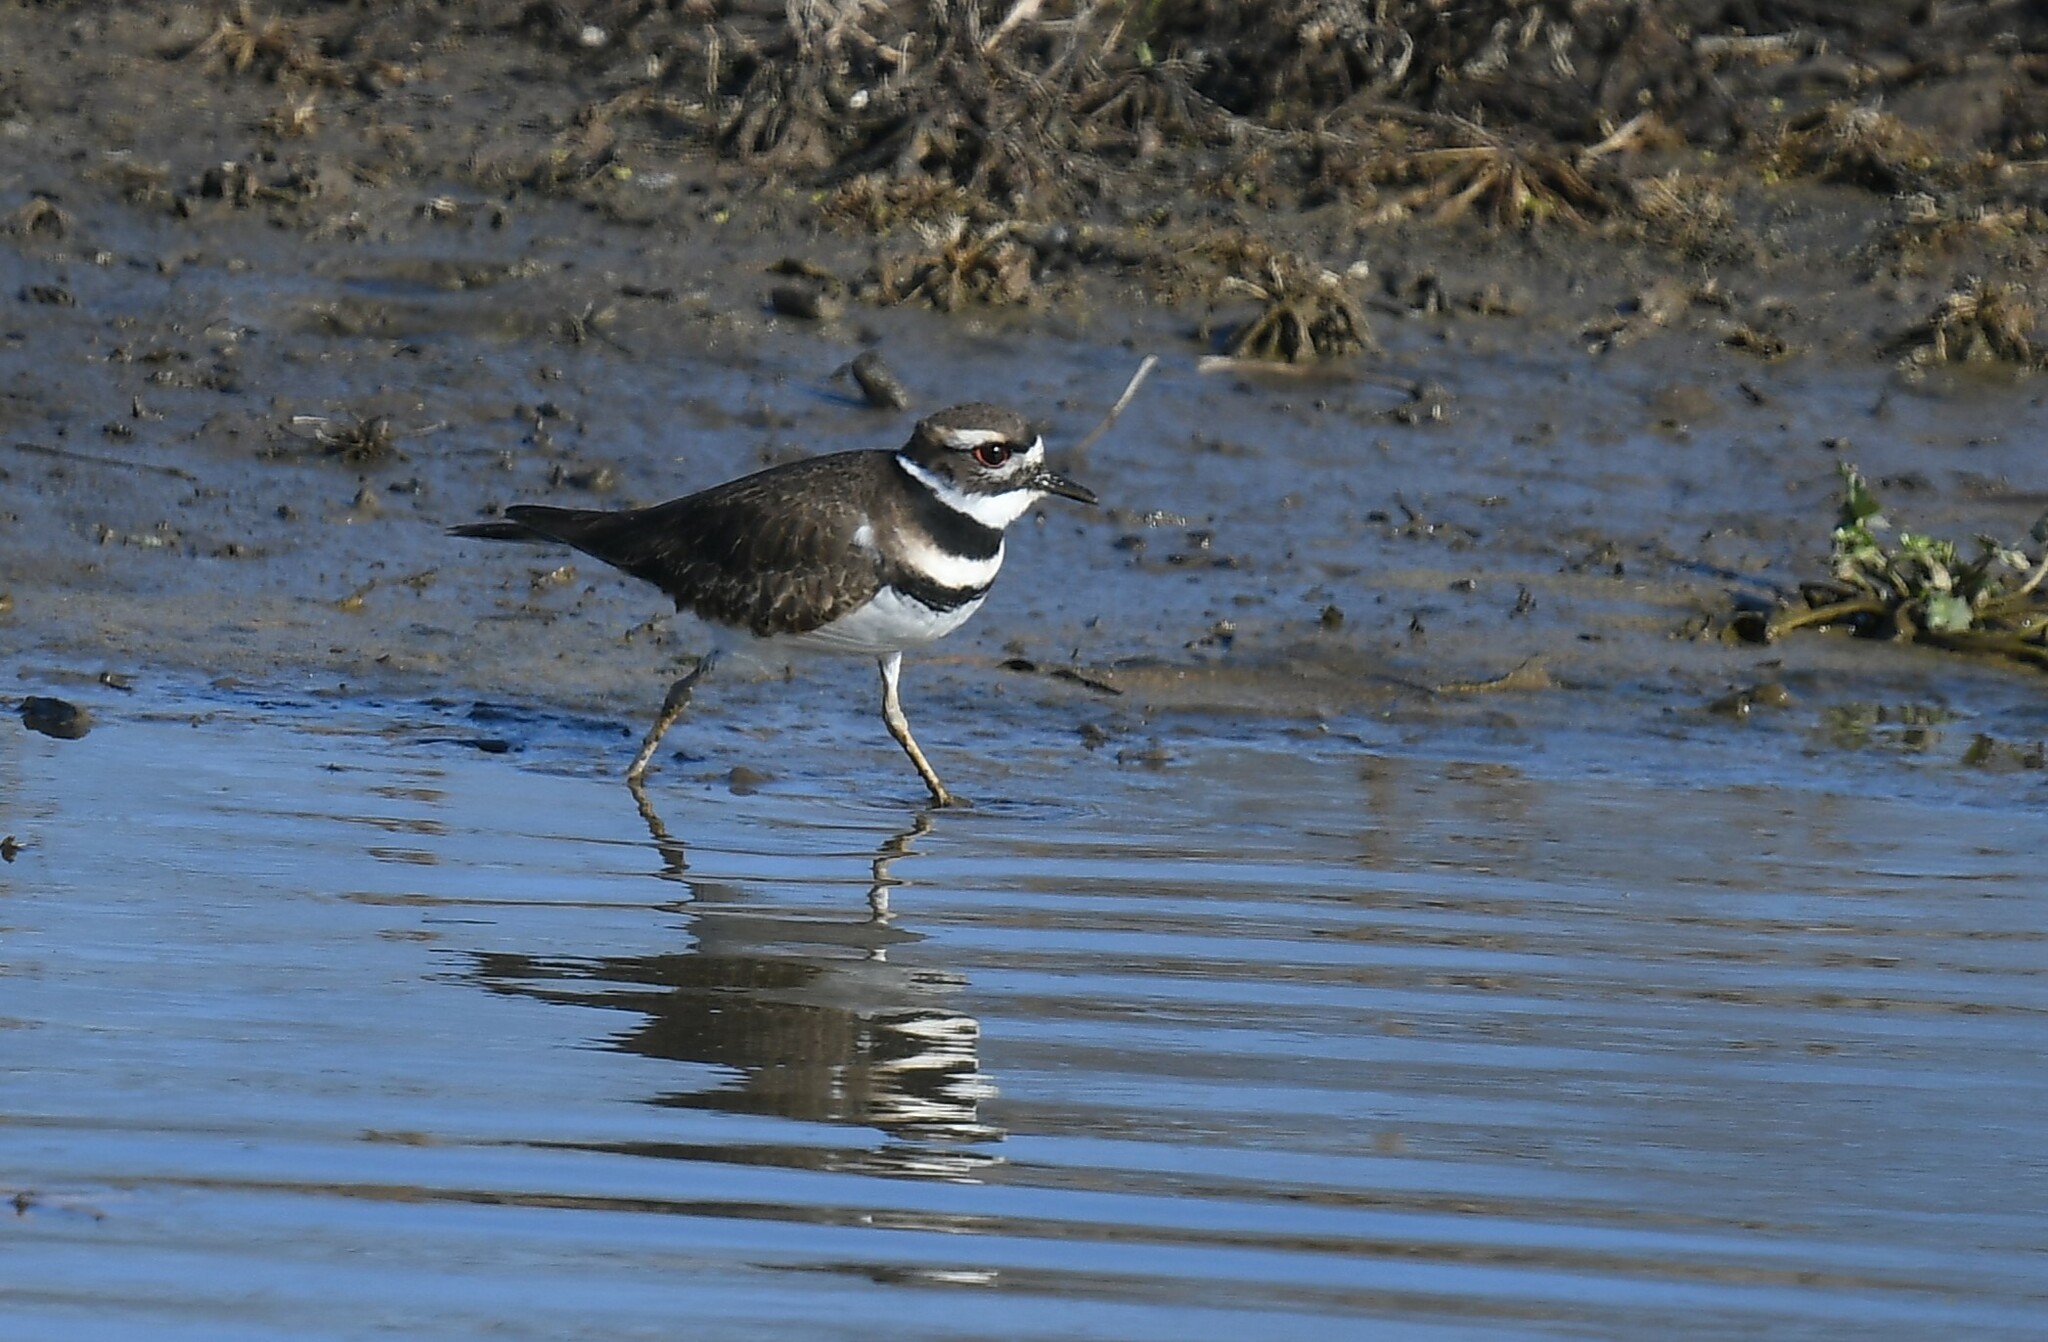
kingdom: Animalia
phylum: Chordata
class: Aves
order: Charadriiformes
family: Charadriidae
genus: Charadrius
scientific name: Charadrius vociferus
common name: Killdeer
